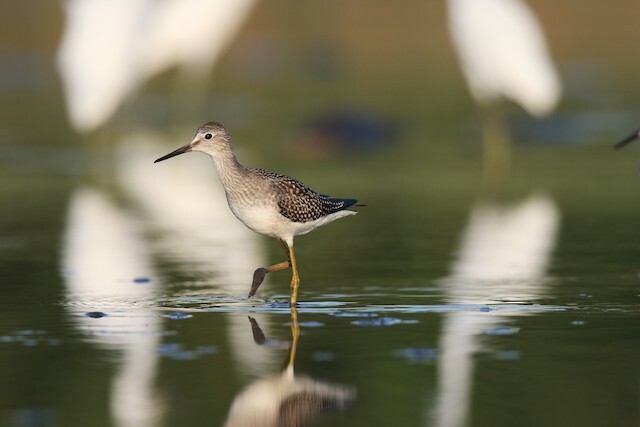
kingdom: Animalia
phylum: Chordata
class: Aves
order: Charadriiformes
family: Scolopacidae
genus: Tringa
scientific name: Tringa flavipes
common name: Lesser yellowlegs
